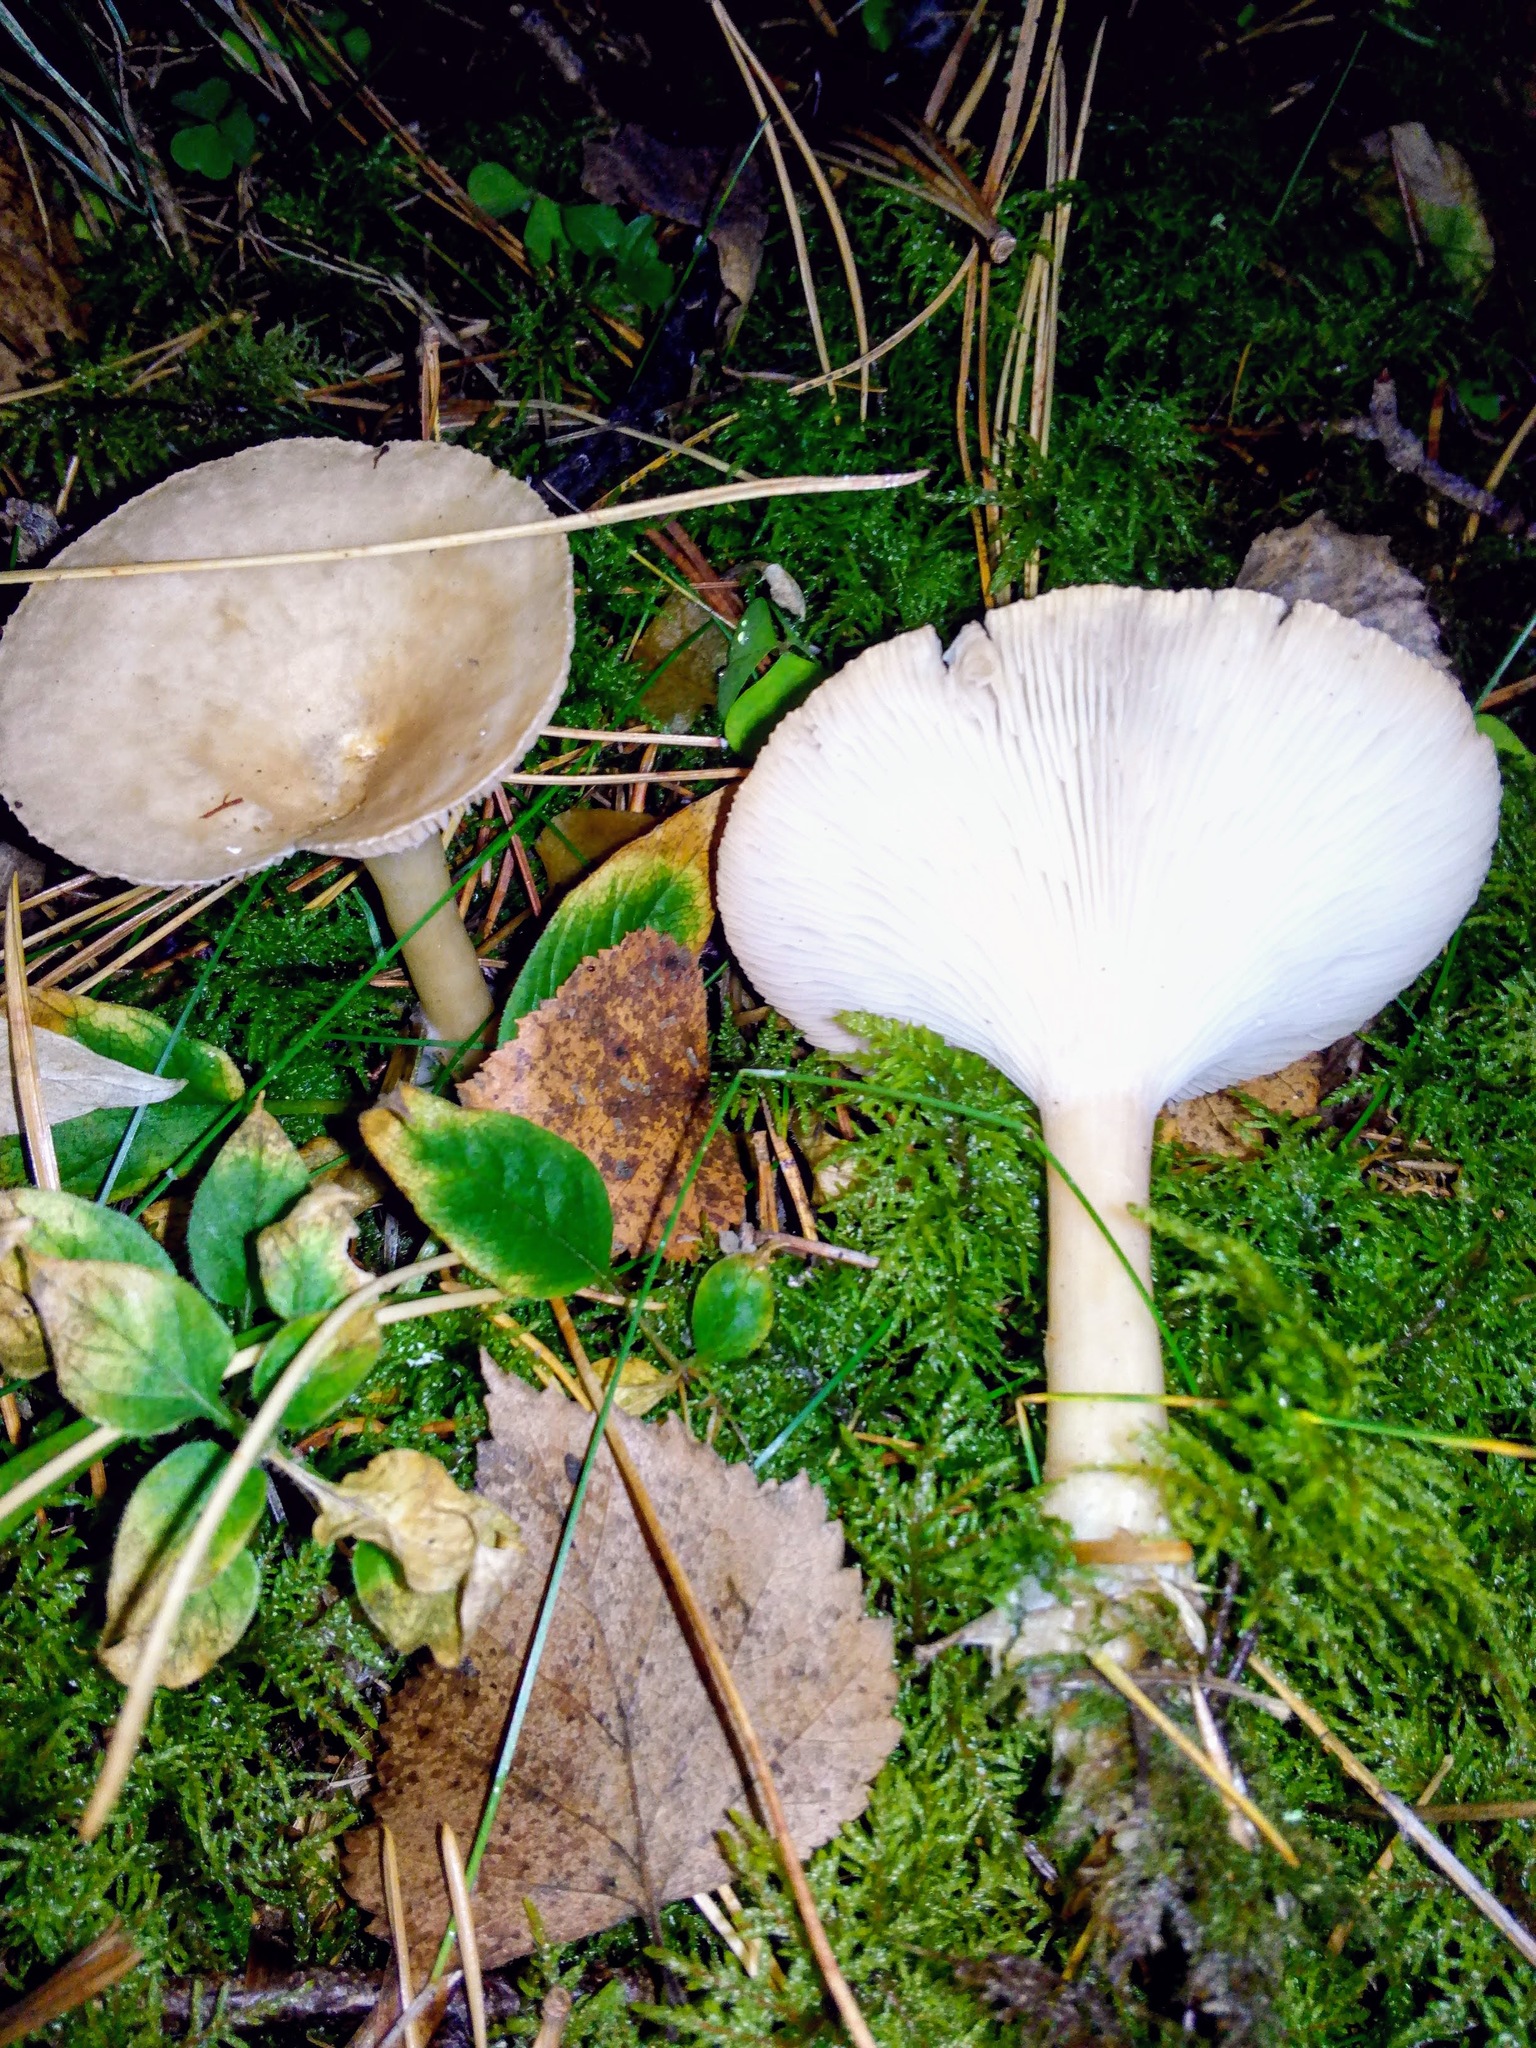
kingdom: Fungi
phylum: Basidiomycota
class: Agaricomycetes
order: Agaricales
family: Tricholomataceae
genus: Infundibulicybe
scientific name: Infundibulicybe gibba
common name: Common funnel
